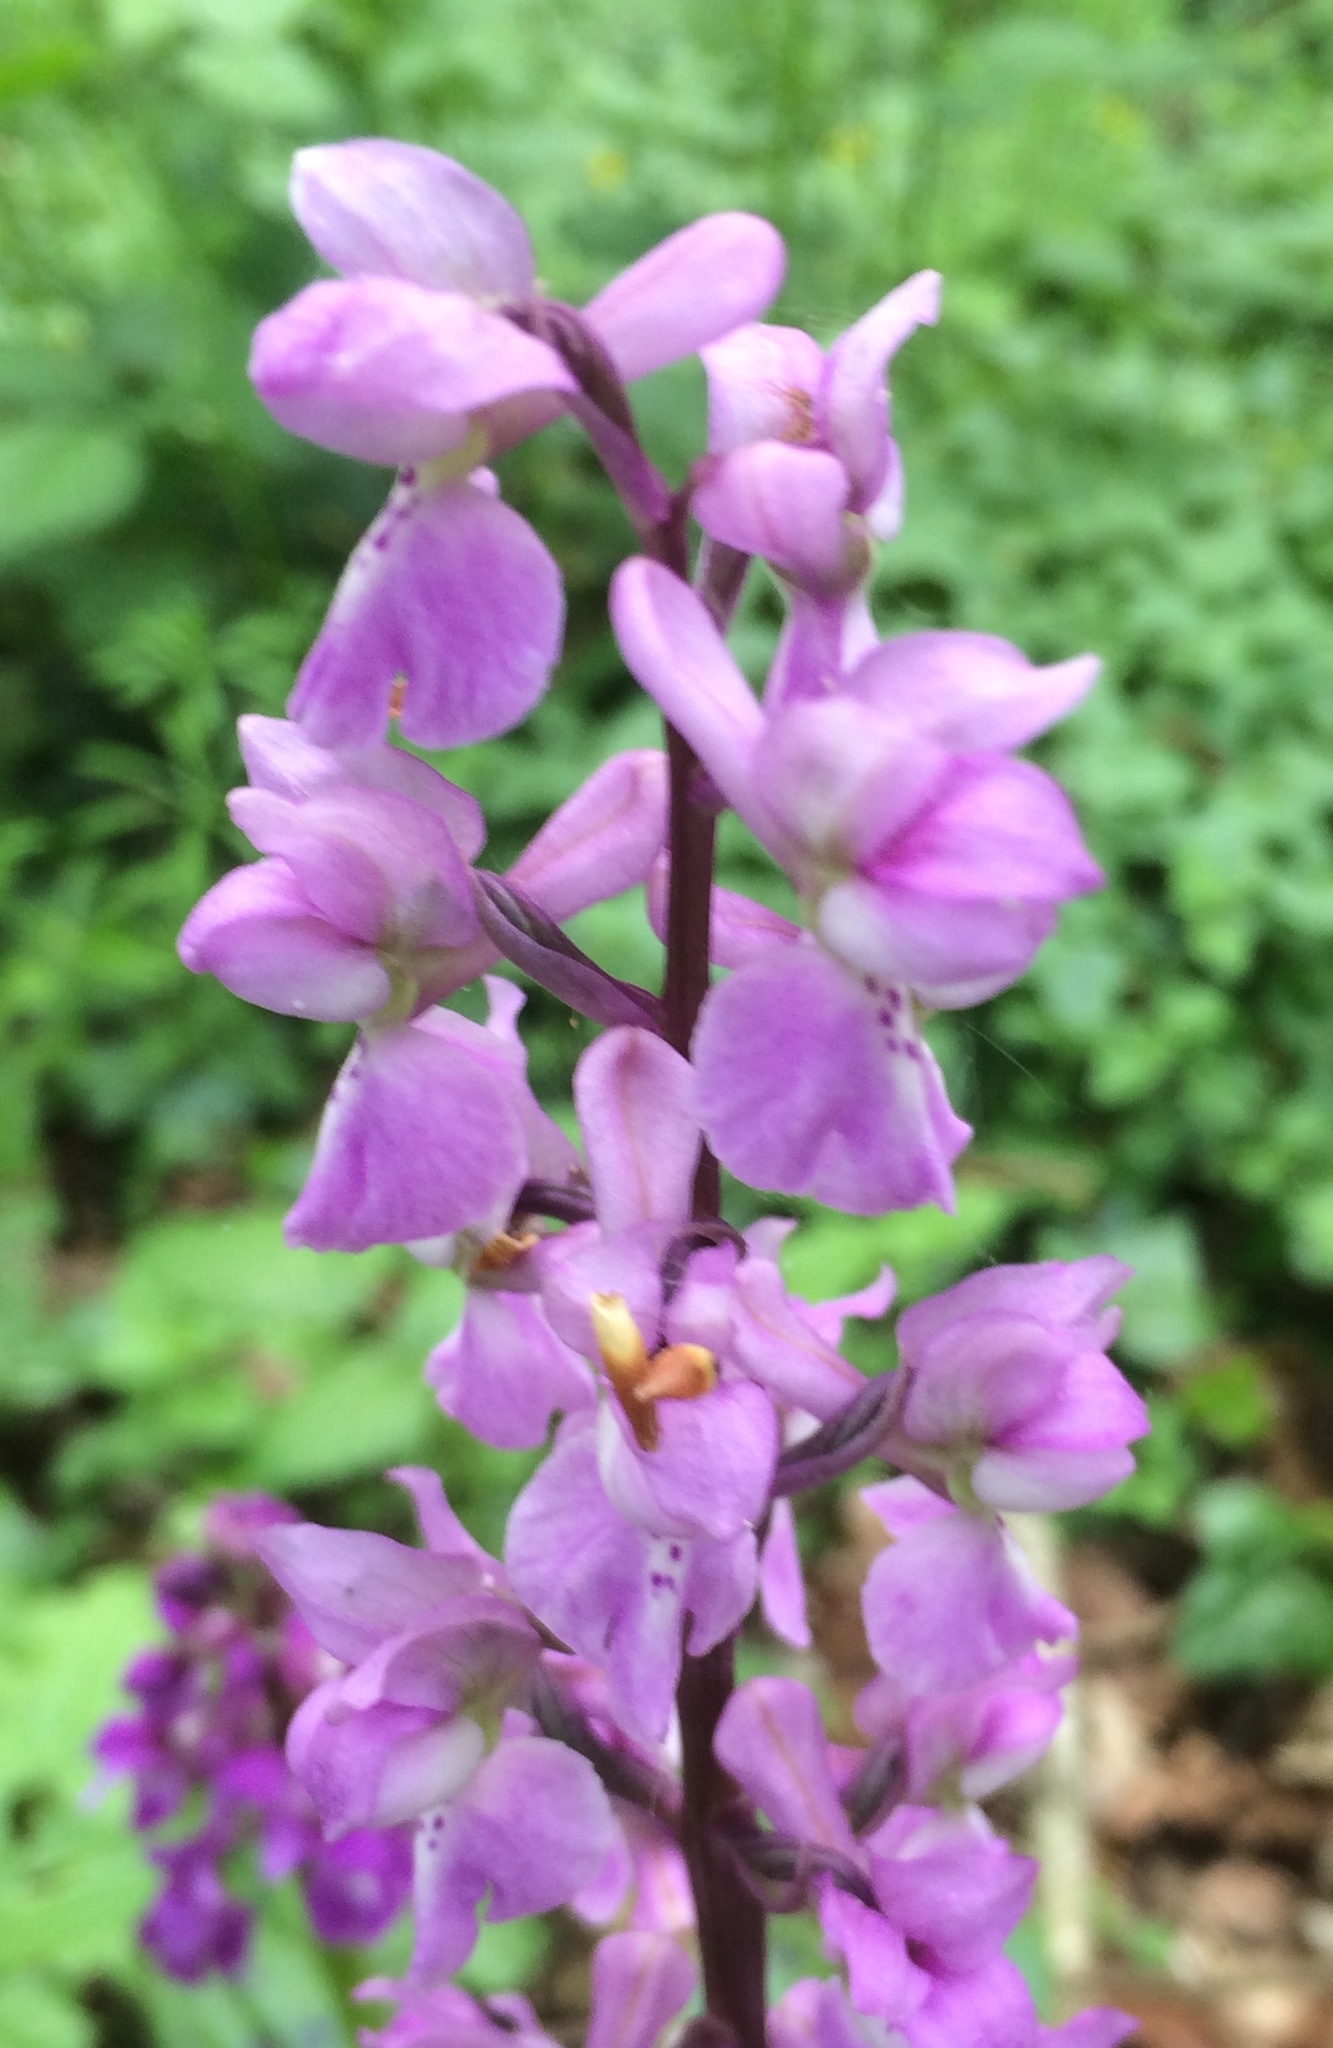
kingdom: Plantae
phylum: Tracheophyta
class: Liliopsida
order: Asparagales
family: Orchidaceae
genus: Orchis
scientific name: Orchis mascula
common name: Early-purple orchid
